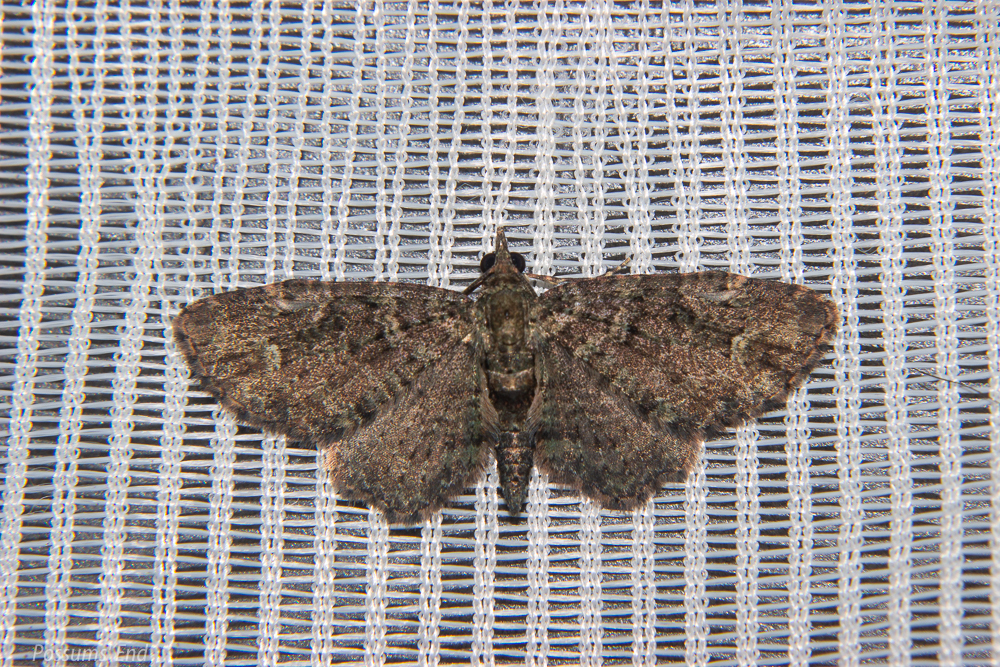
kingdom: Animalia
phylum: Arthropoda
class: Insecta
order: Lepidoptera
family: Geometridae
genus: Pasiphilodes
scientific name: Pasiphilodes testulata
